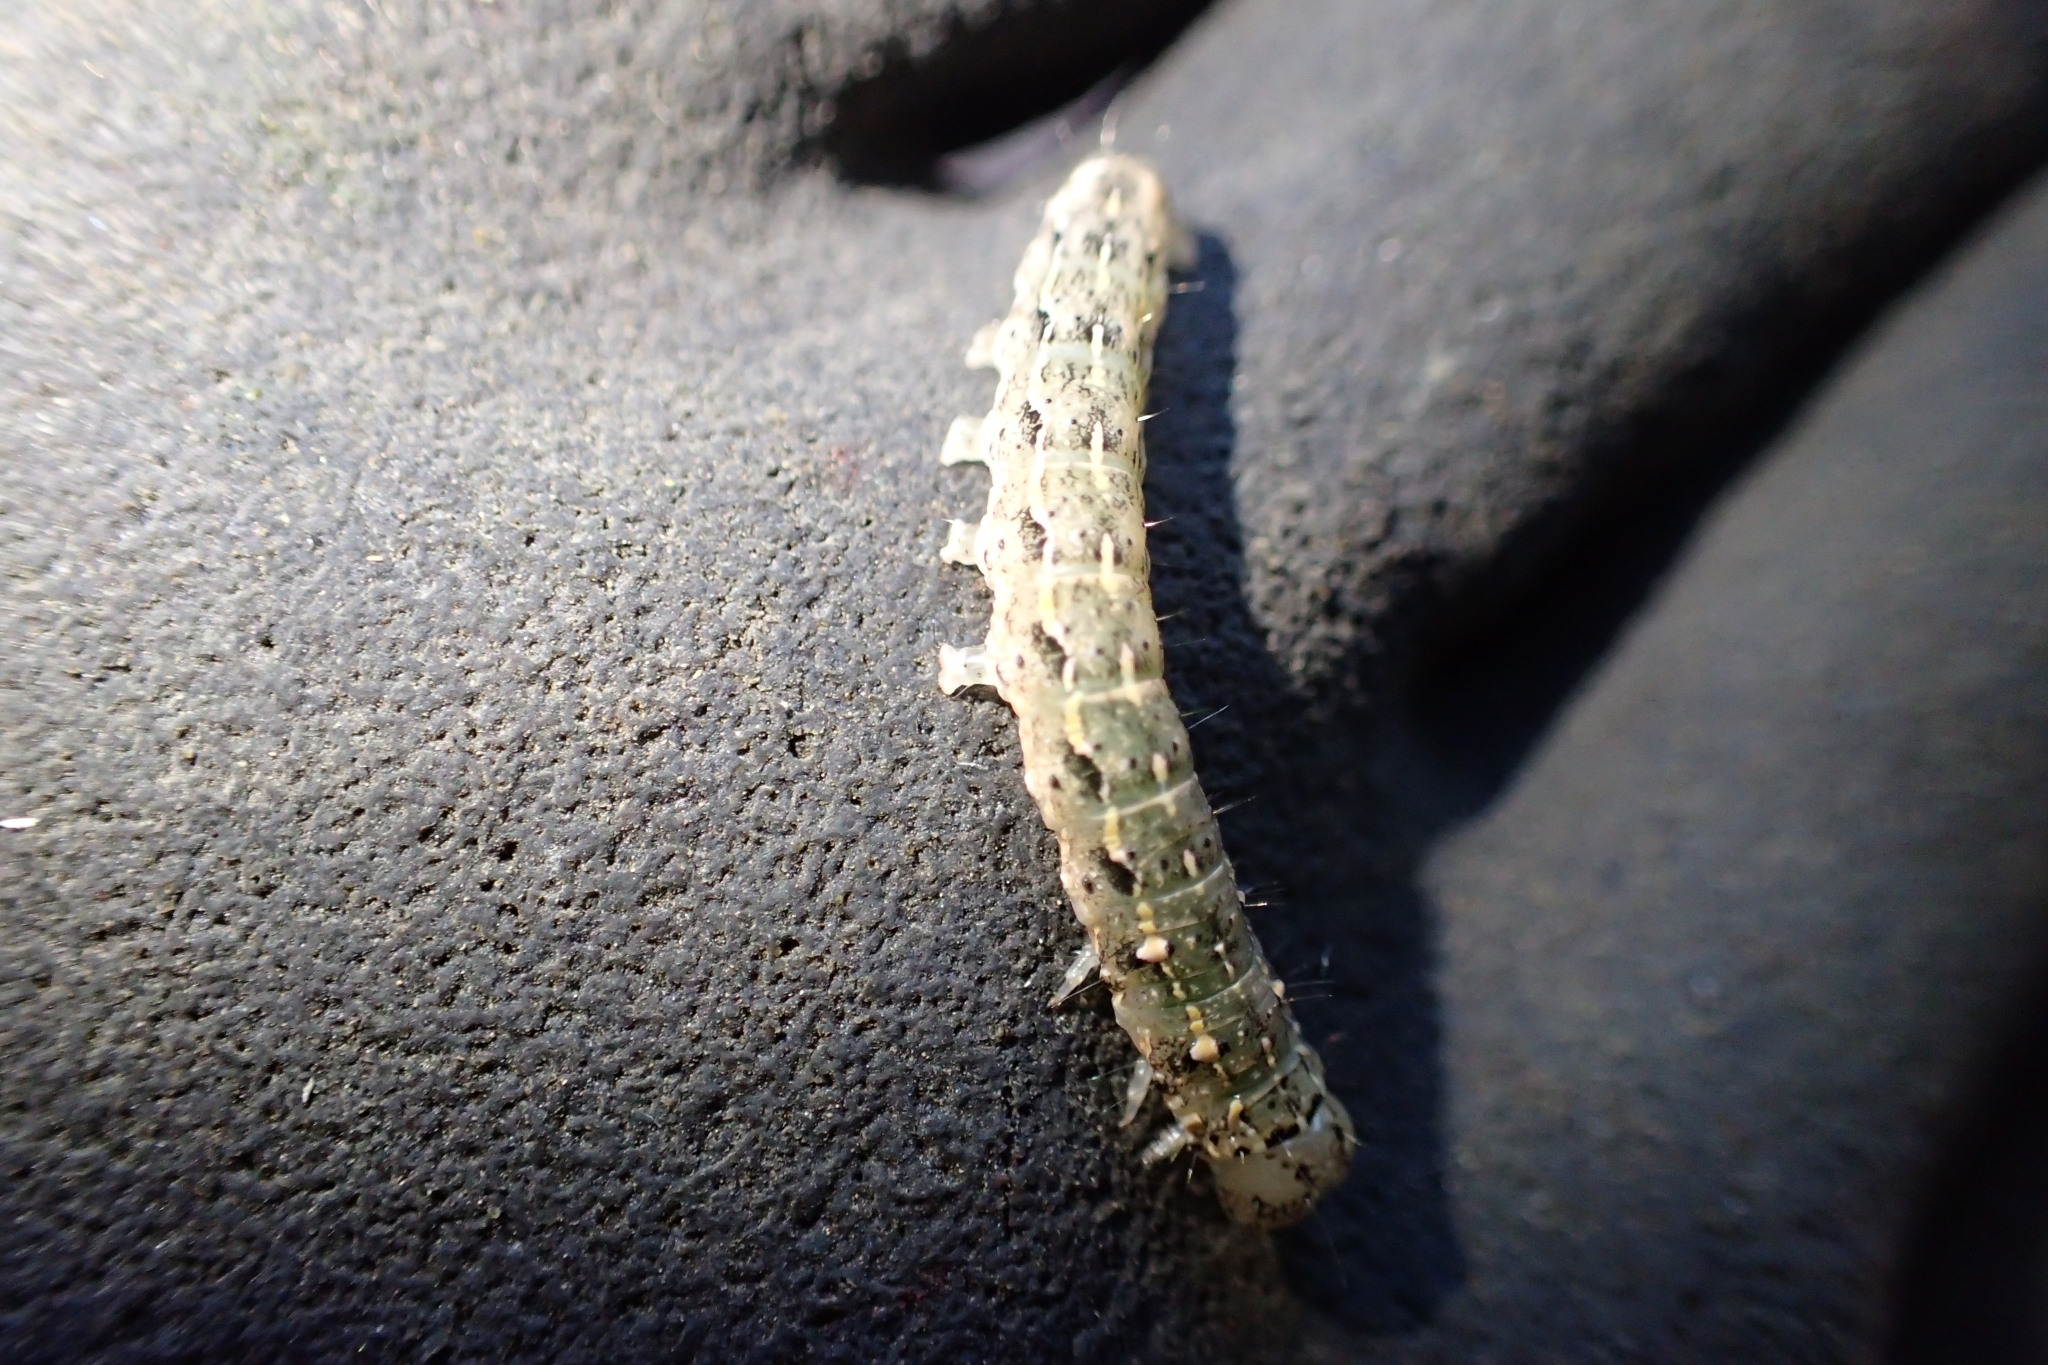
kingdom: Animalia
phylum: Arthropoda
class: Insecta
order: Lepidoptera
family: Noctuidae
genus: Feredayia
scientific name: Feredayia grammosa
